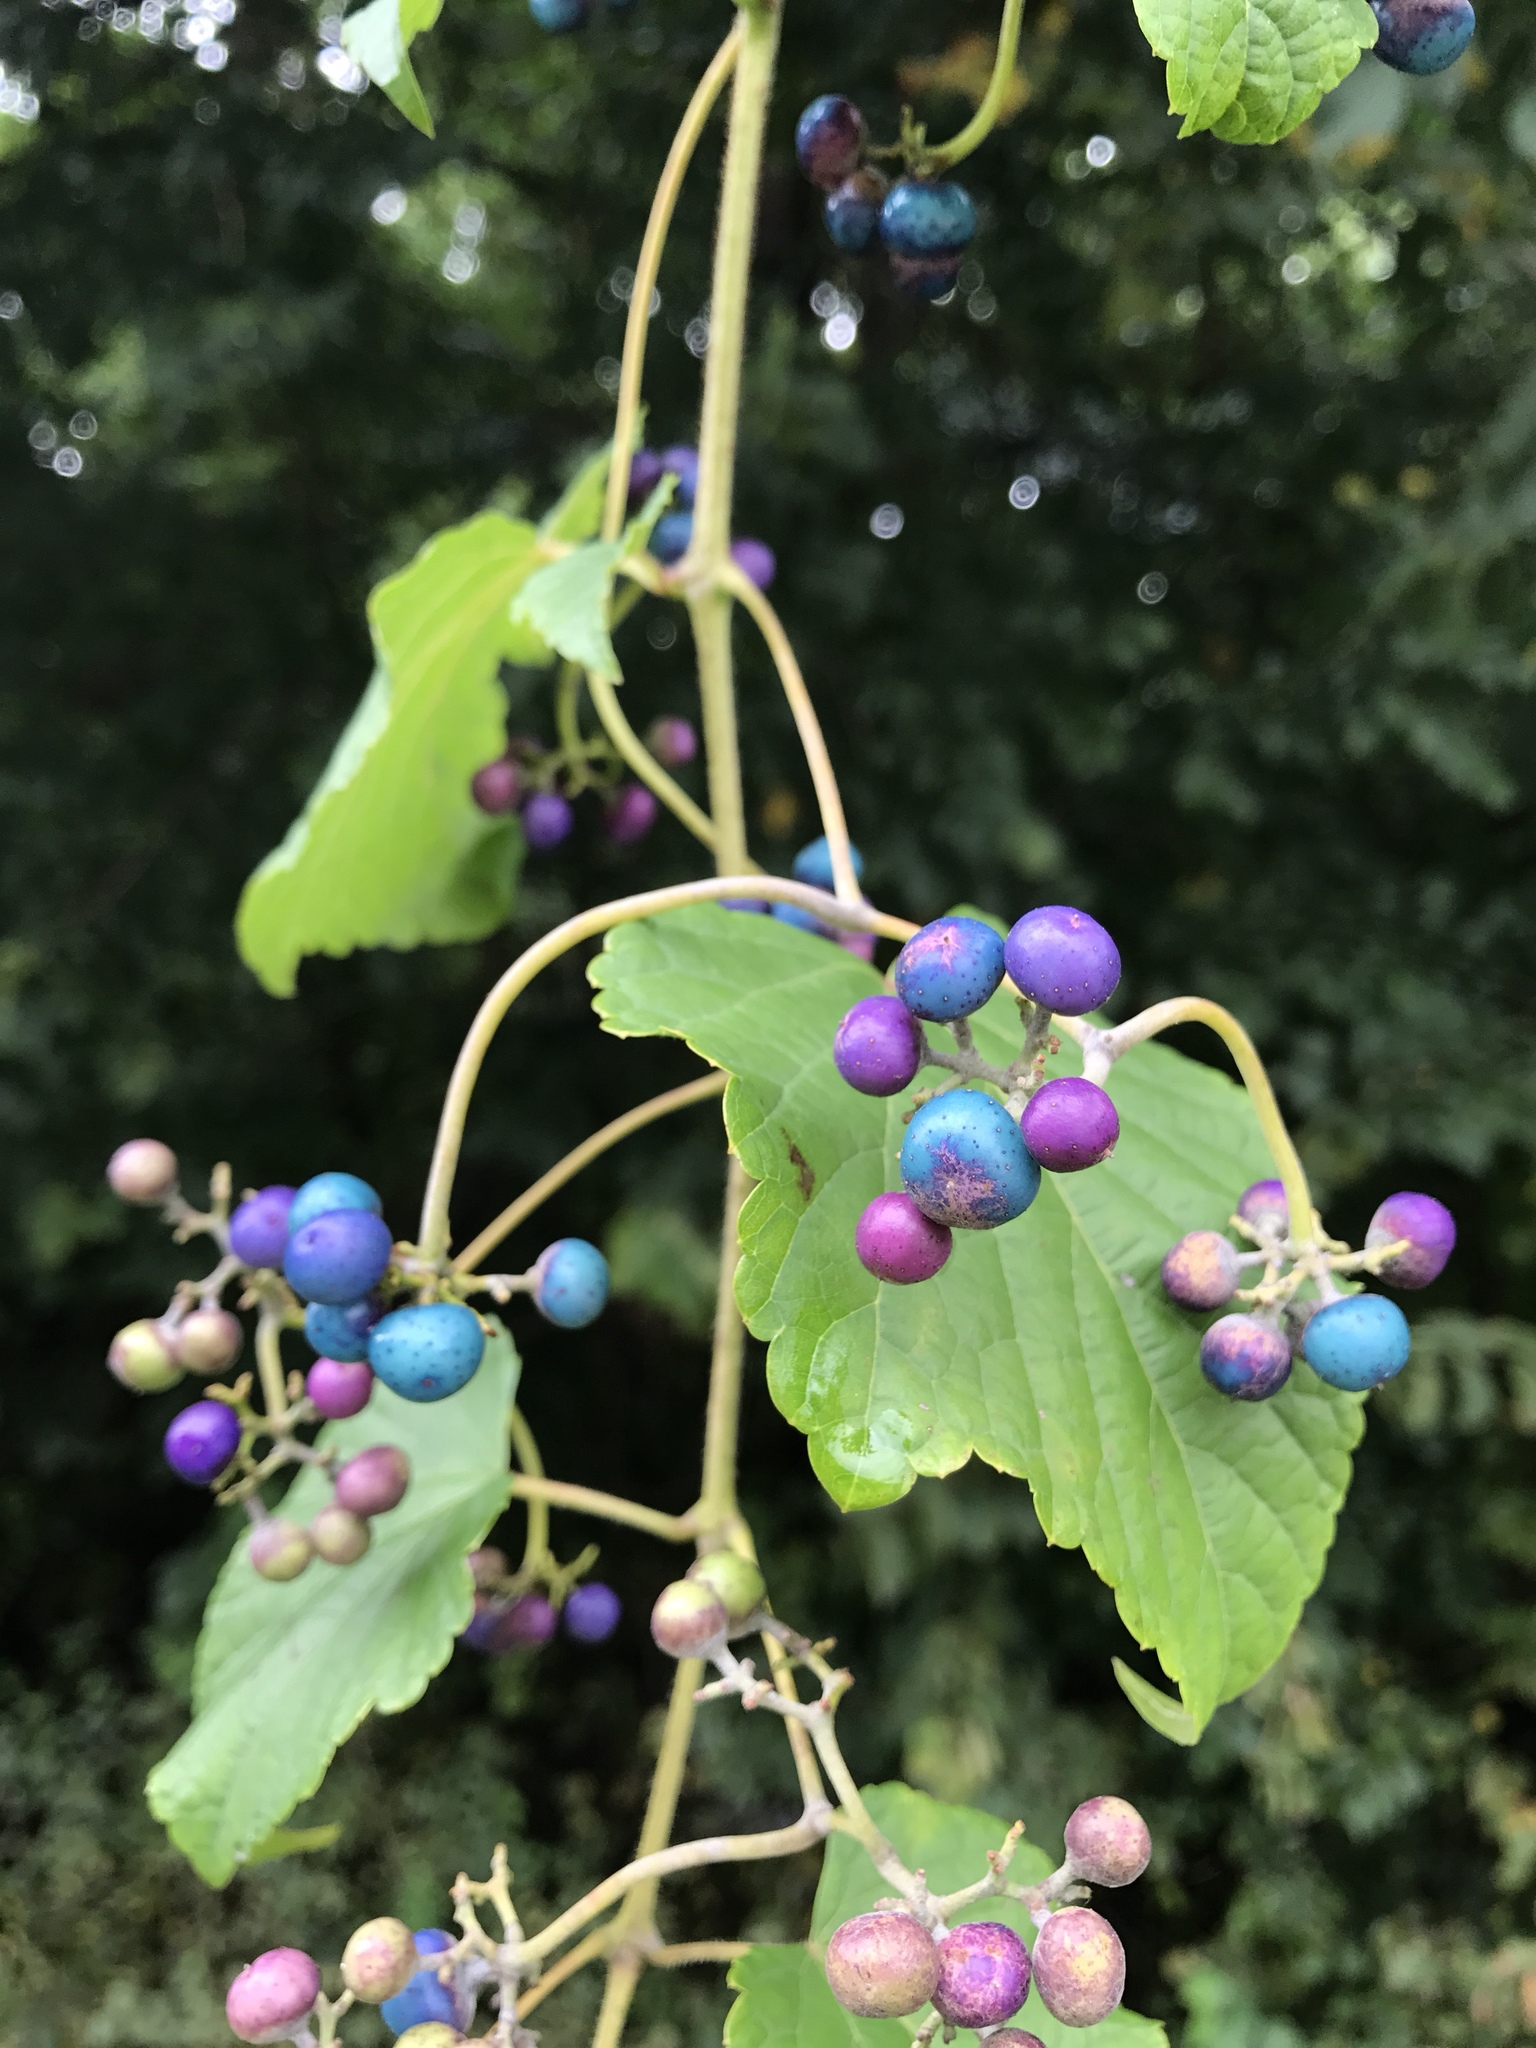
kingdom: Plantae
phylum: Tracheophyta
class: Magnoliopsida
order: Vitales
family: Vitaceae
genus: Ampelopsis
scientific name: Ampelopsis glandulosa
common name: Amur peppervine
